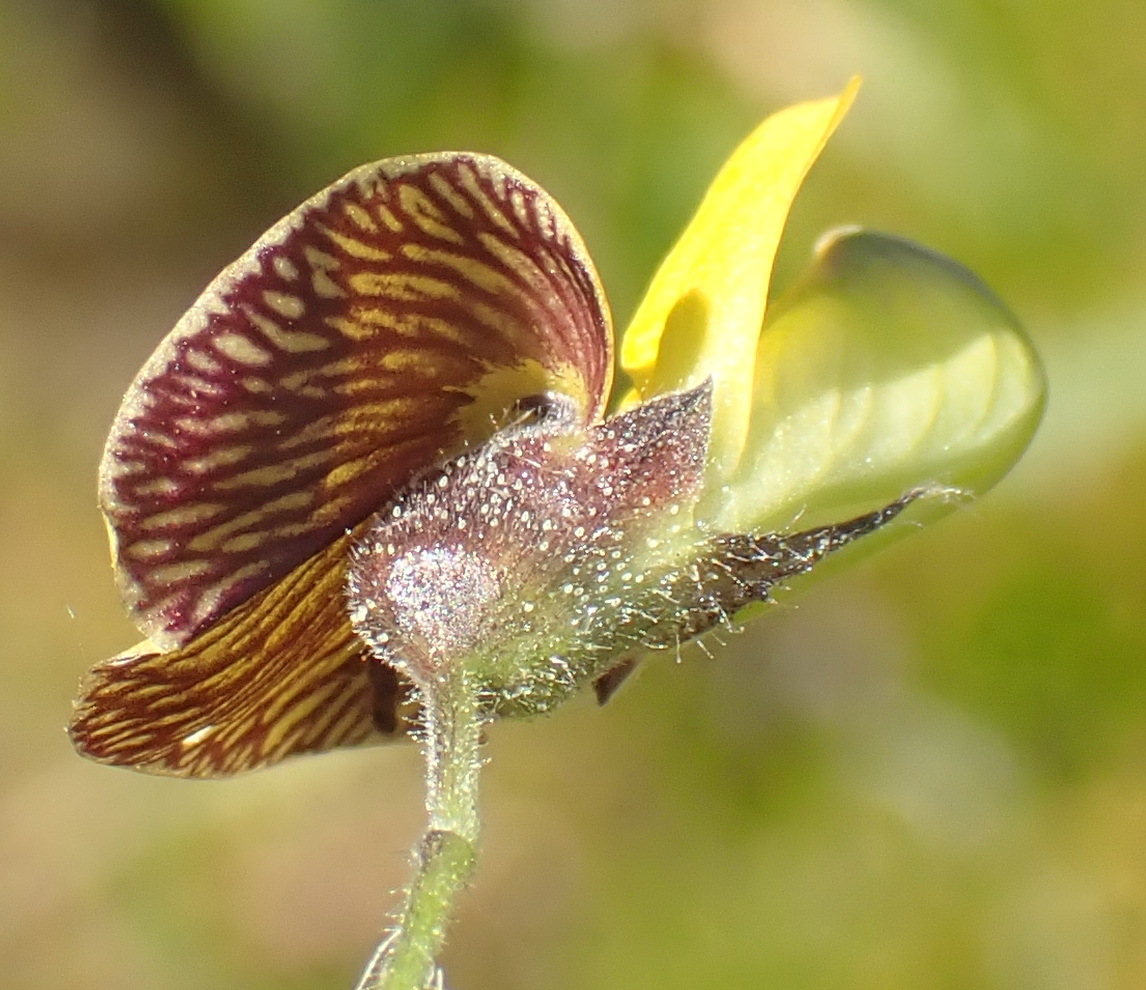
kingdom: Plantae
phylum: Tracheophyta
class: Magnoliopsida
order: Fabales
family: Fabaceae
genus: Rhynchosia
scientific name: Rhynchosia caribaea
